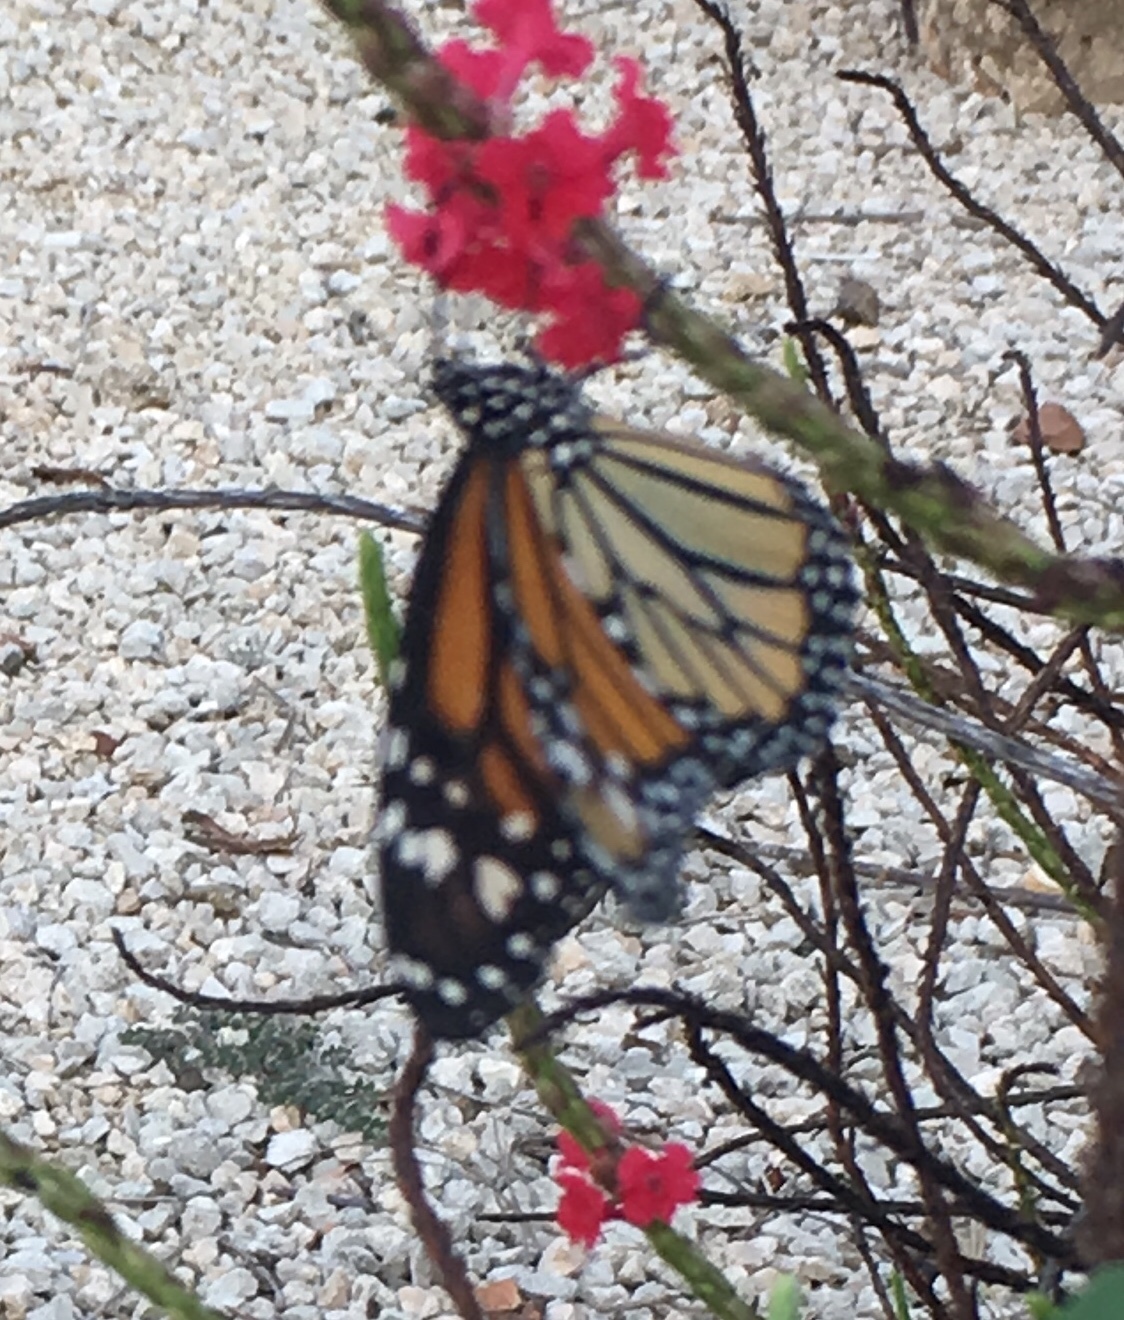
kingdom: Animalia
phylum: Arthropoda
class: Insecta
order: Lepidoptera
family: Nymphalidae
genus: Danaus
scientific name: Danaus plexippus
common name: Monarch
